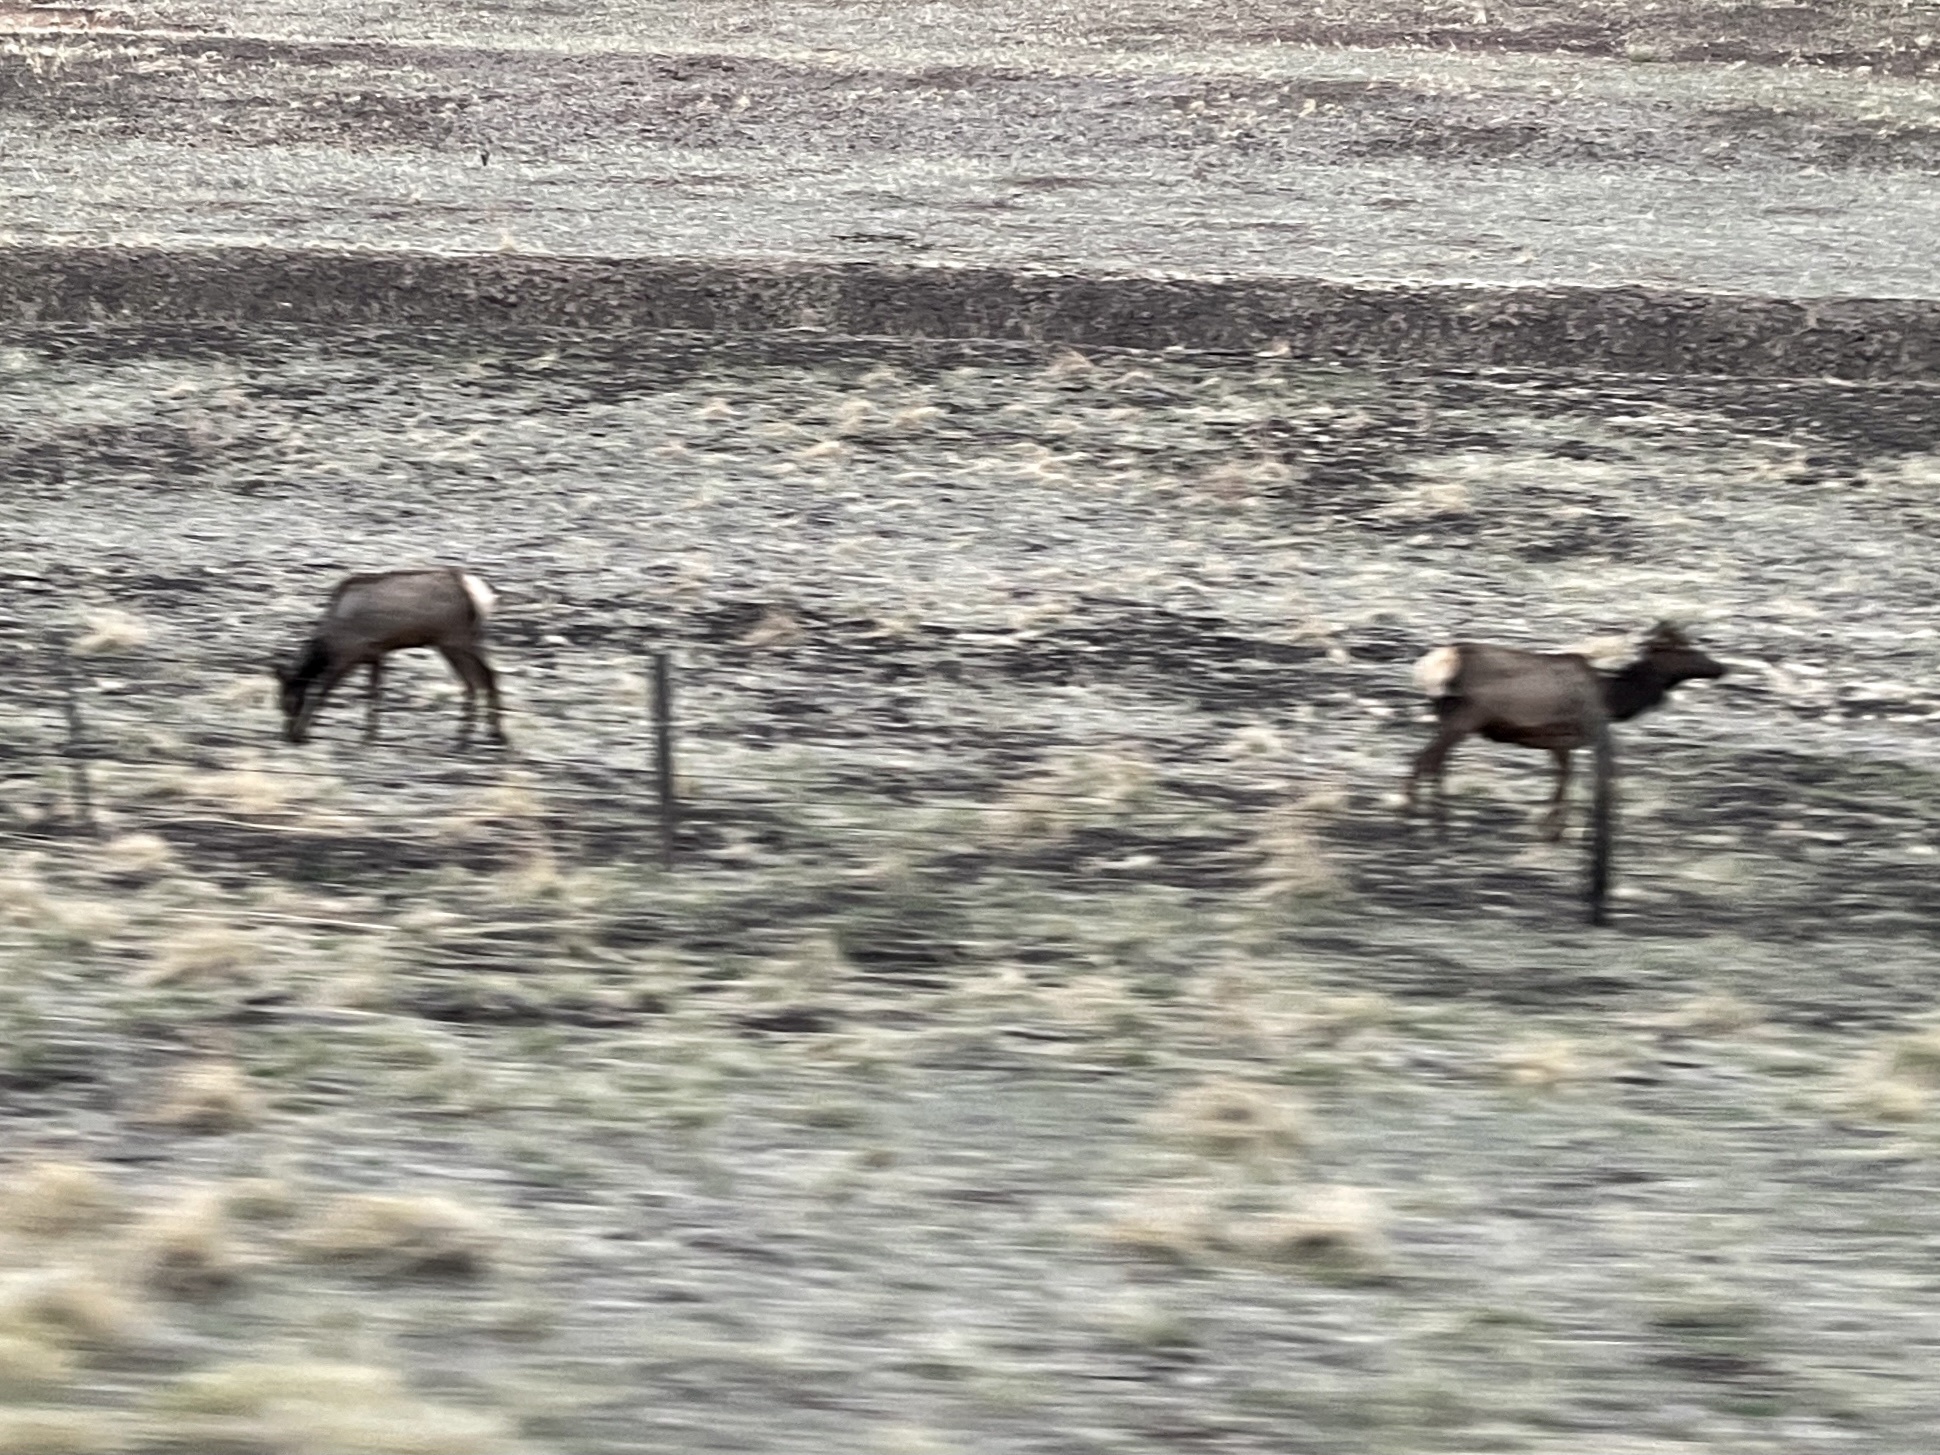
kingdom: Animalia
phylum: Chordata
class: Mammalia
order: Artiodactyla
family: Cervidae
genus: Cervus
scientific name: Cervus elaphus
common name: Red deer
